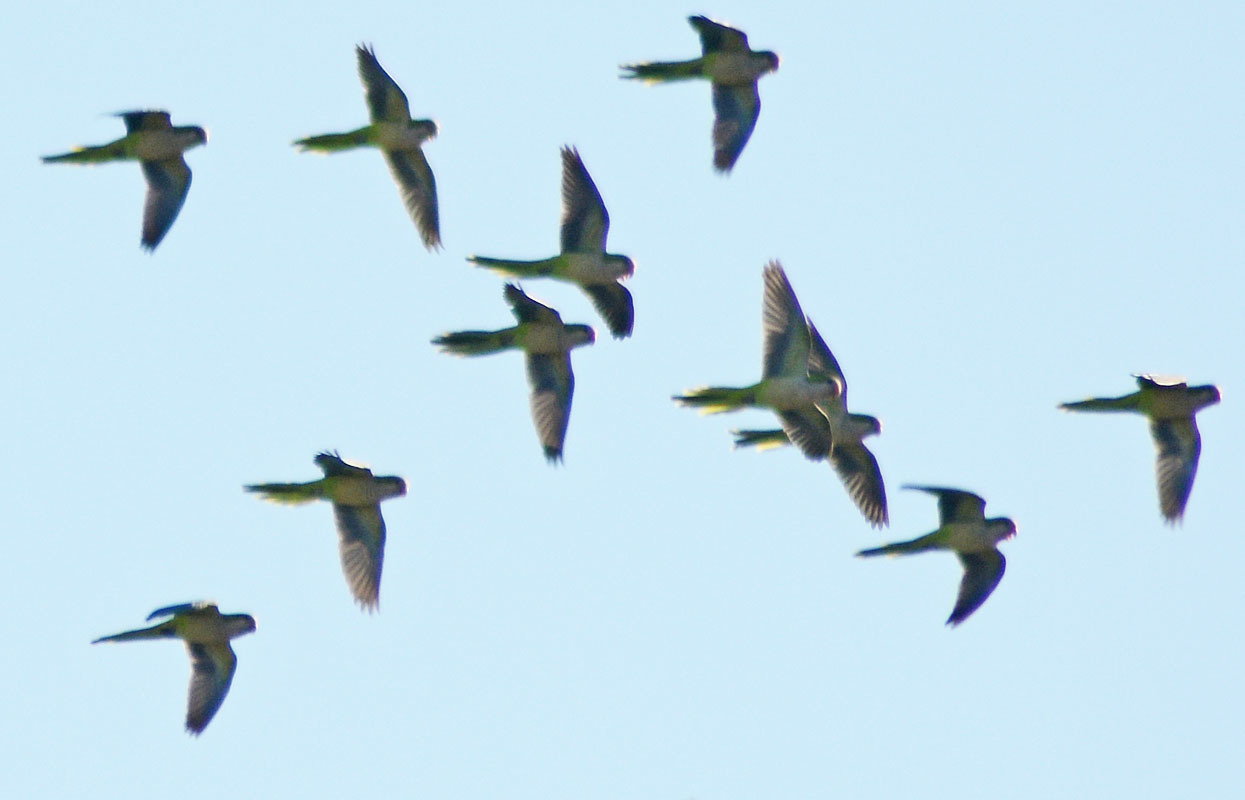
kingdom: Animalia
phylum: Chordata
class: Aves
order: Psittaciformes
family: Psittacidae
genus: Myiopsitta
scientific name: Myiopsitta monachus
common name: Monk parakeet
